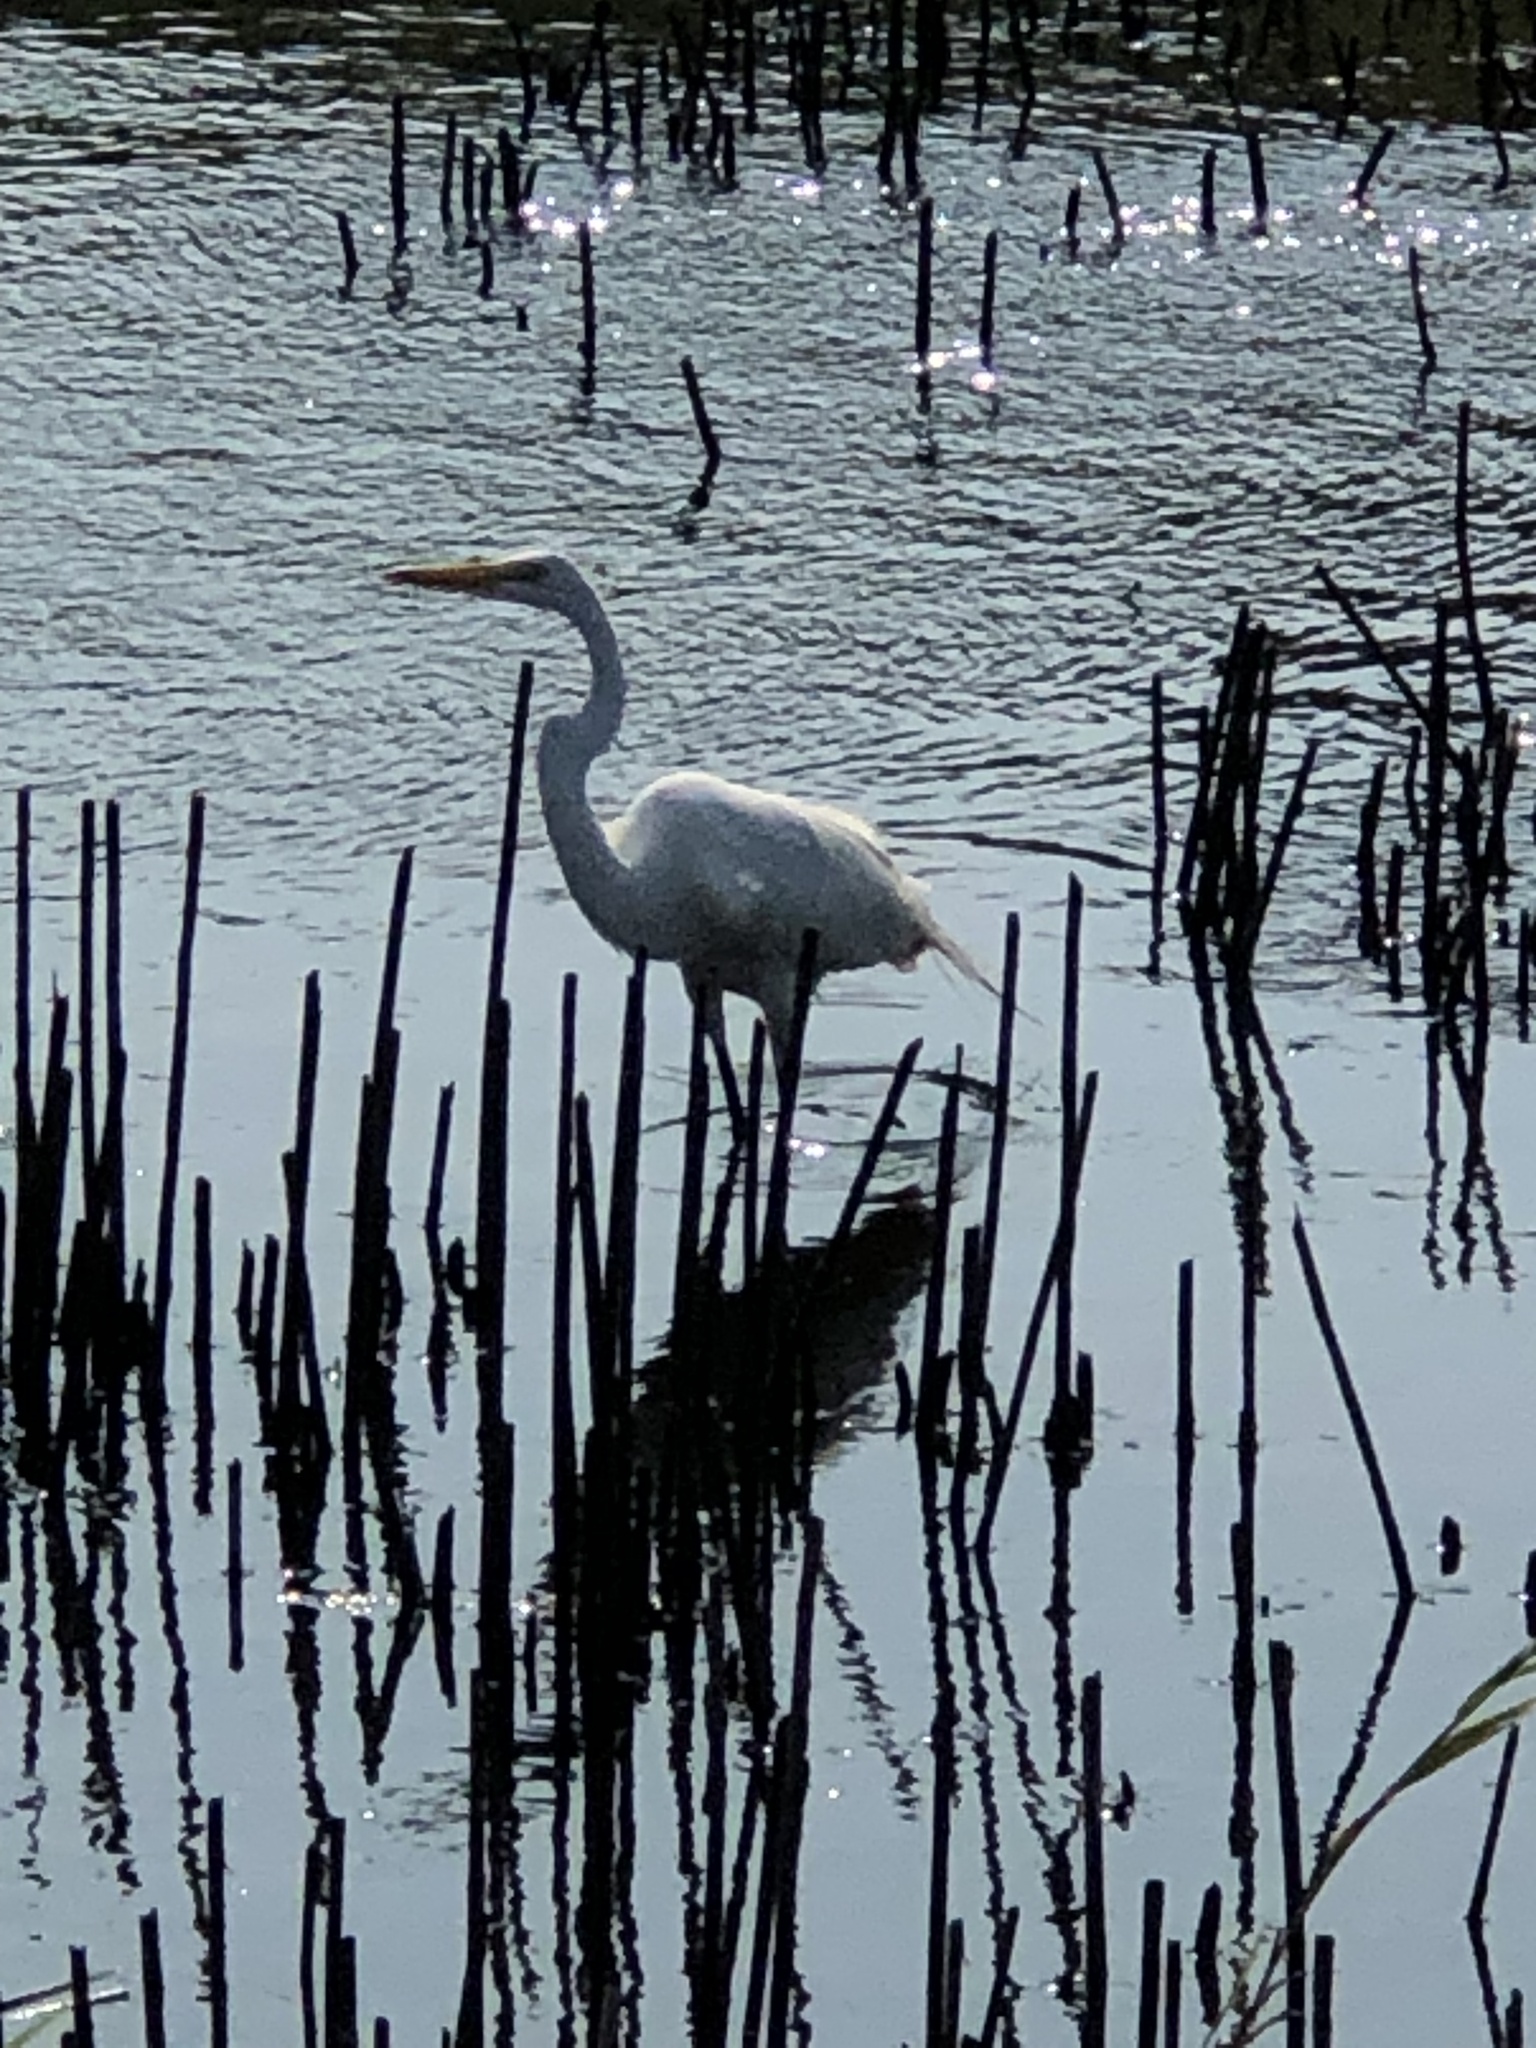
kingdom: Animalia
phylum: Chordata
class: Aves
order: Pelecaniformes
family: Ardeidae
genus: Ardea
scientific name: Ardea alba
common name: Great egret
